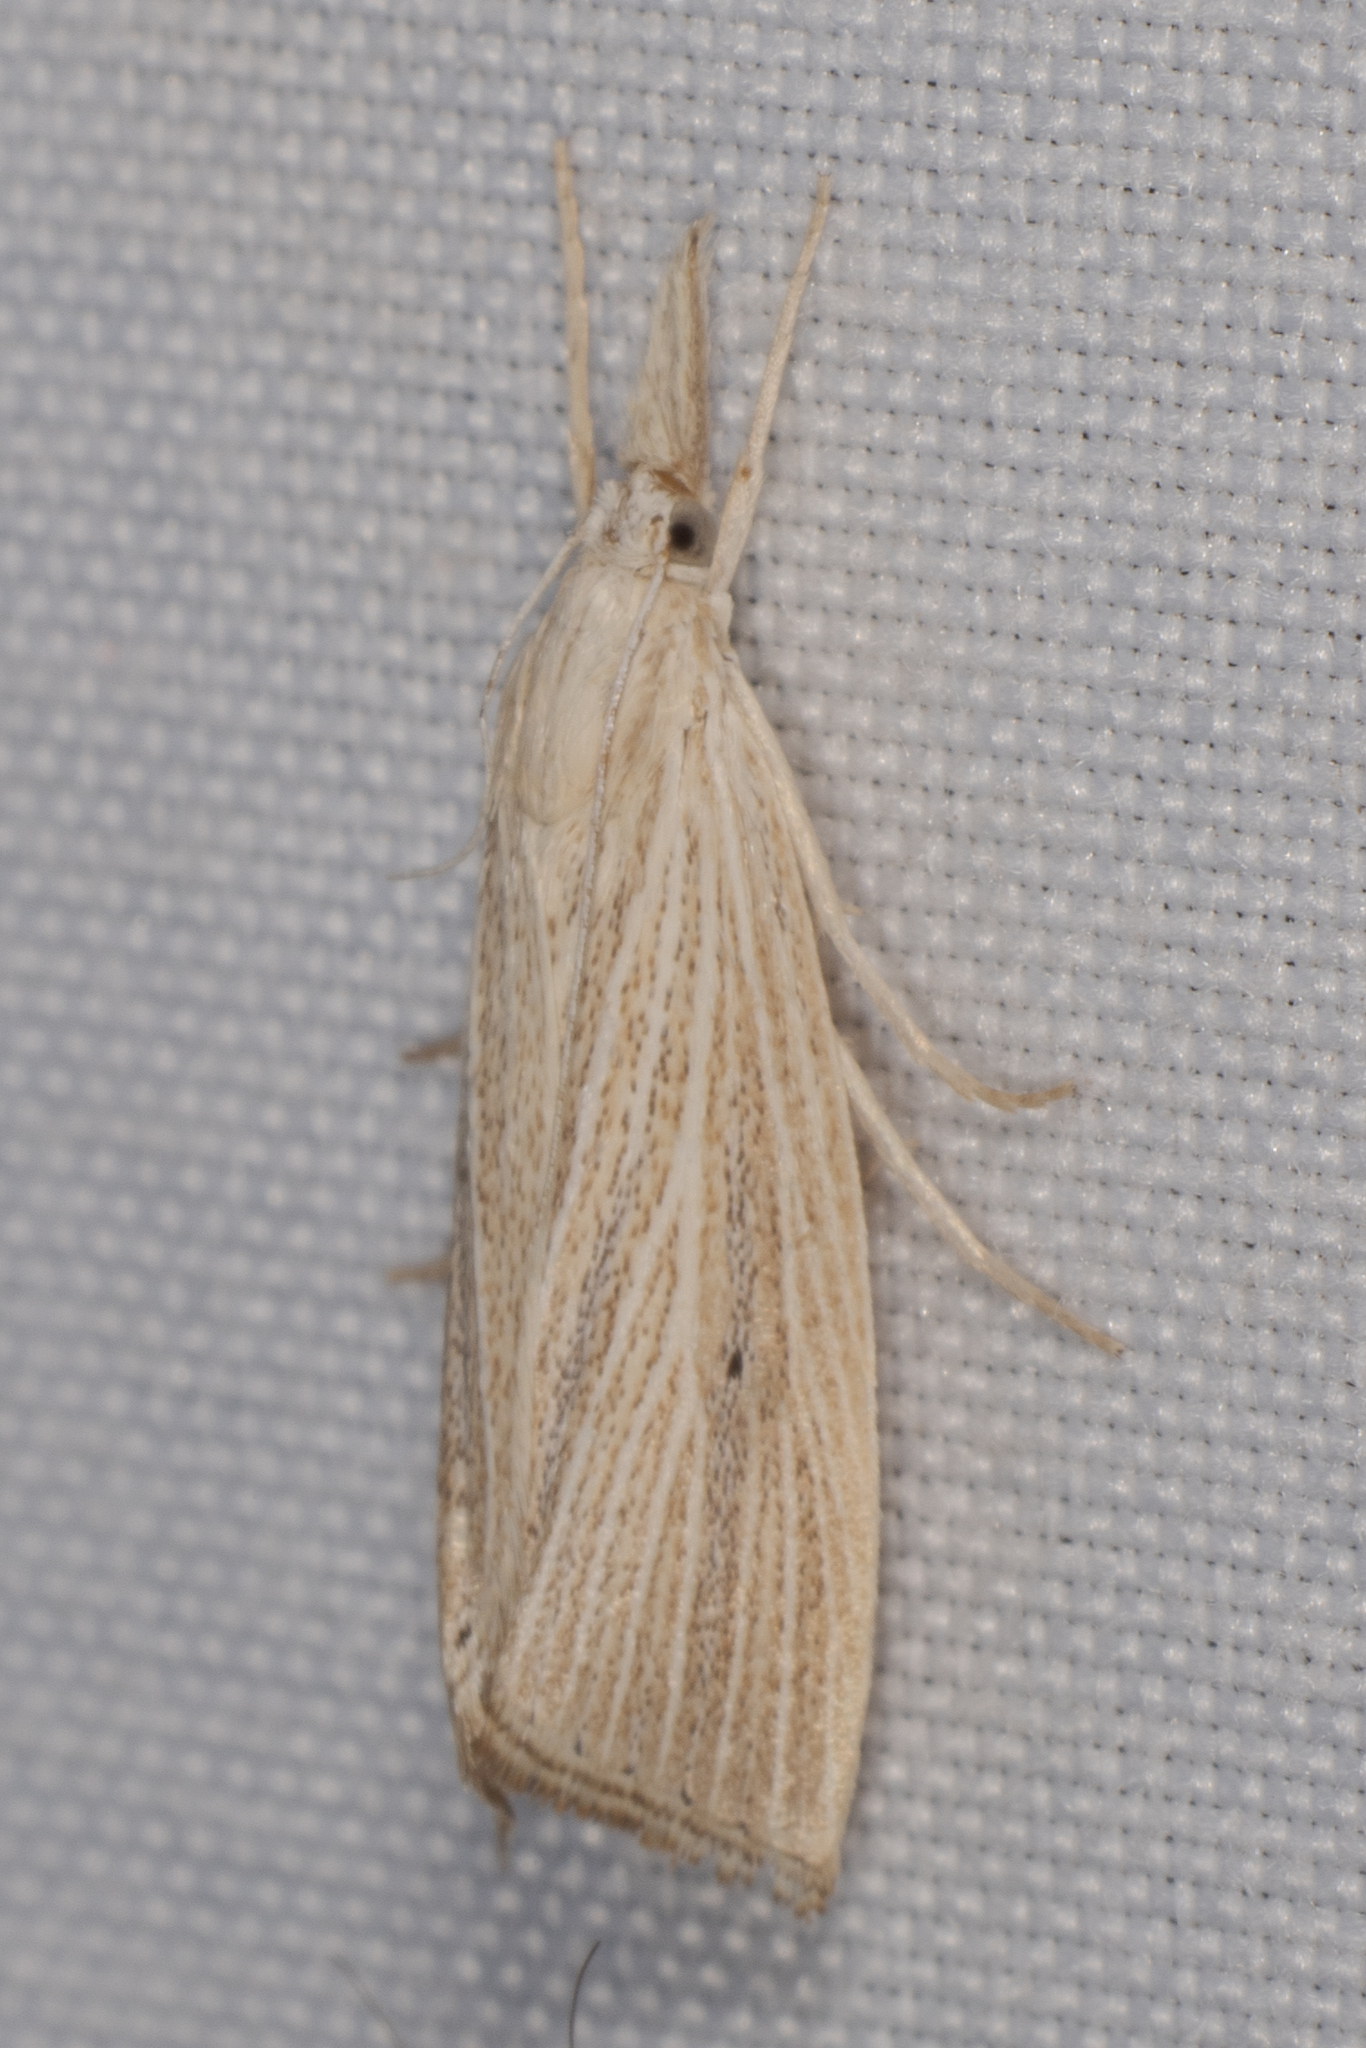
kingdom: Animalia
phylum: Arthropoda
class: Insecta
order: Lepidoptera
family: Crambidae
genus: Eoreuma
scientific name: Eoreuma densellus
